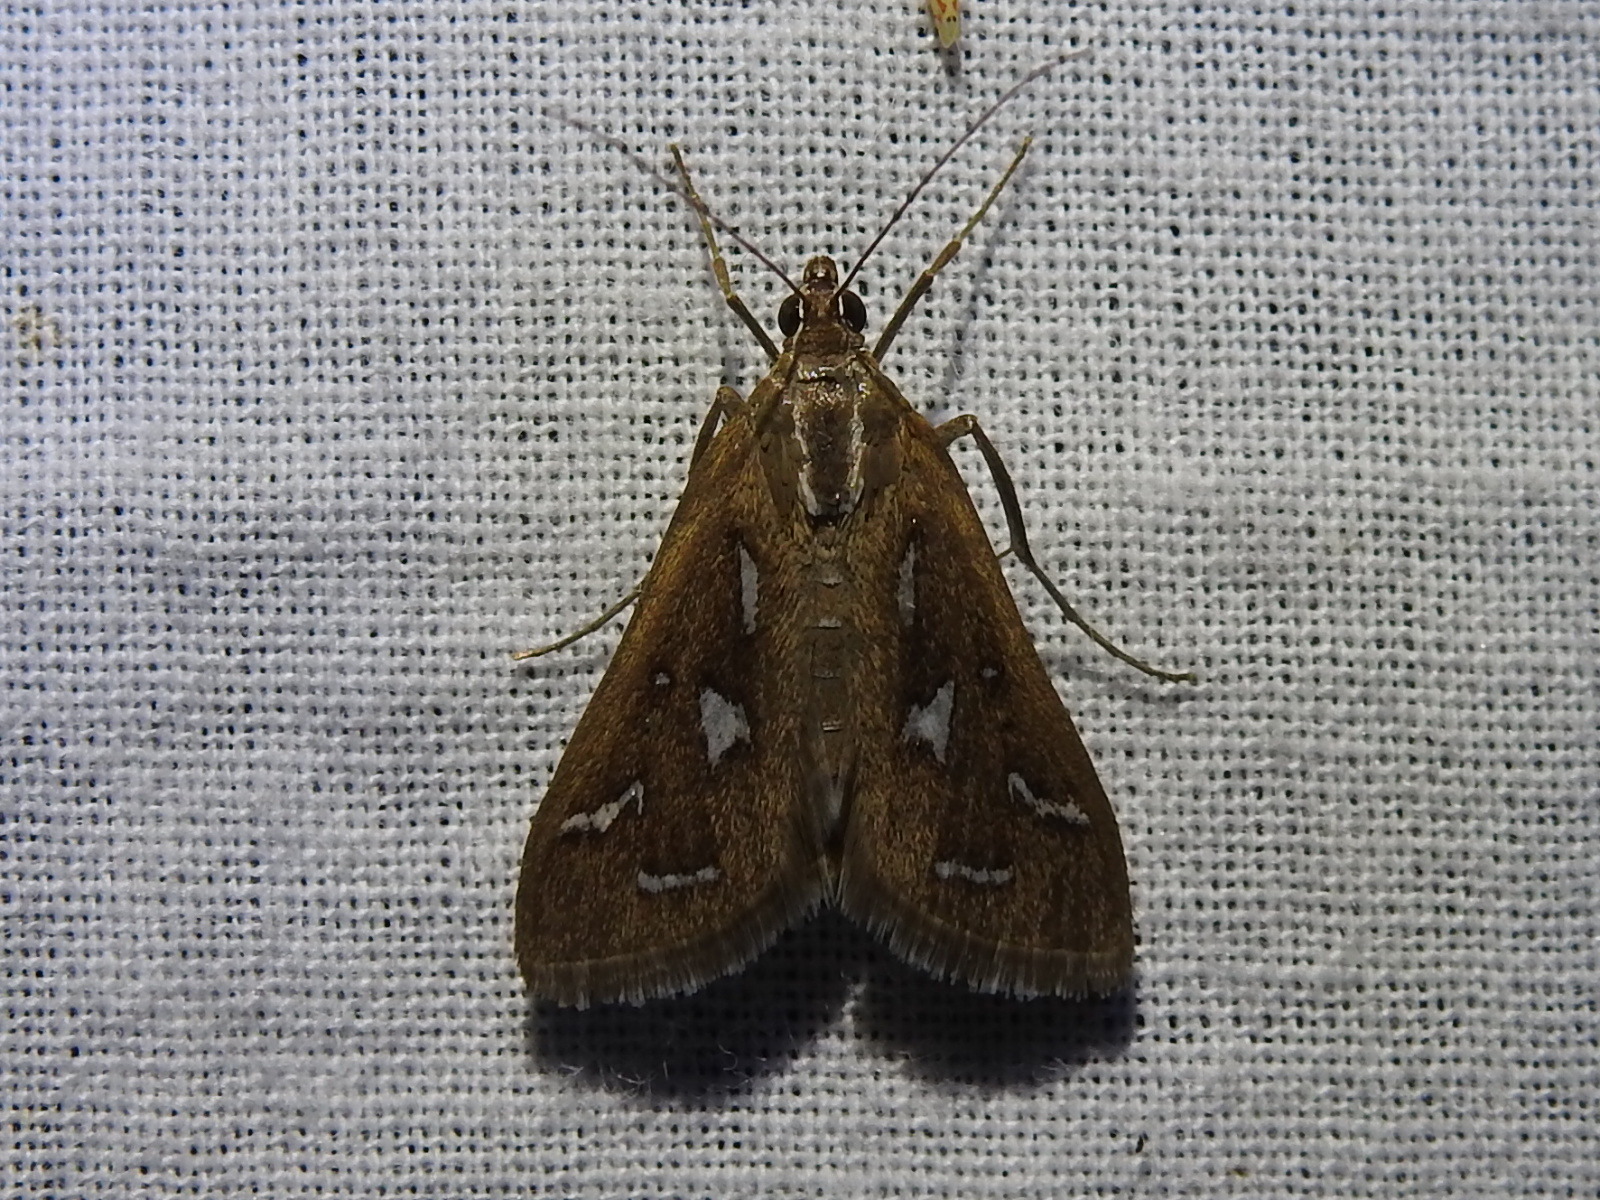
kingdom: Animalia
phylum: Arthropoda
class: Insecta
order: Lepidoptera
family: Crambidae
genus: Diastictis
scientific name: Diastictis fracturalis
